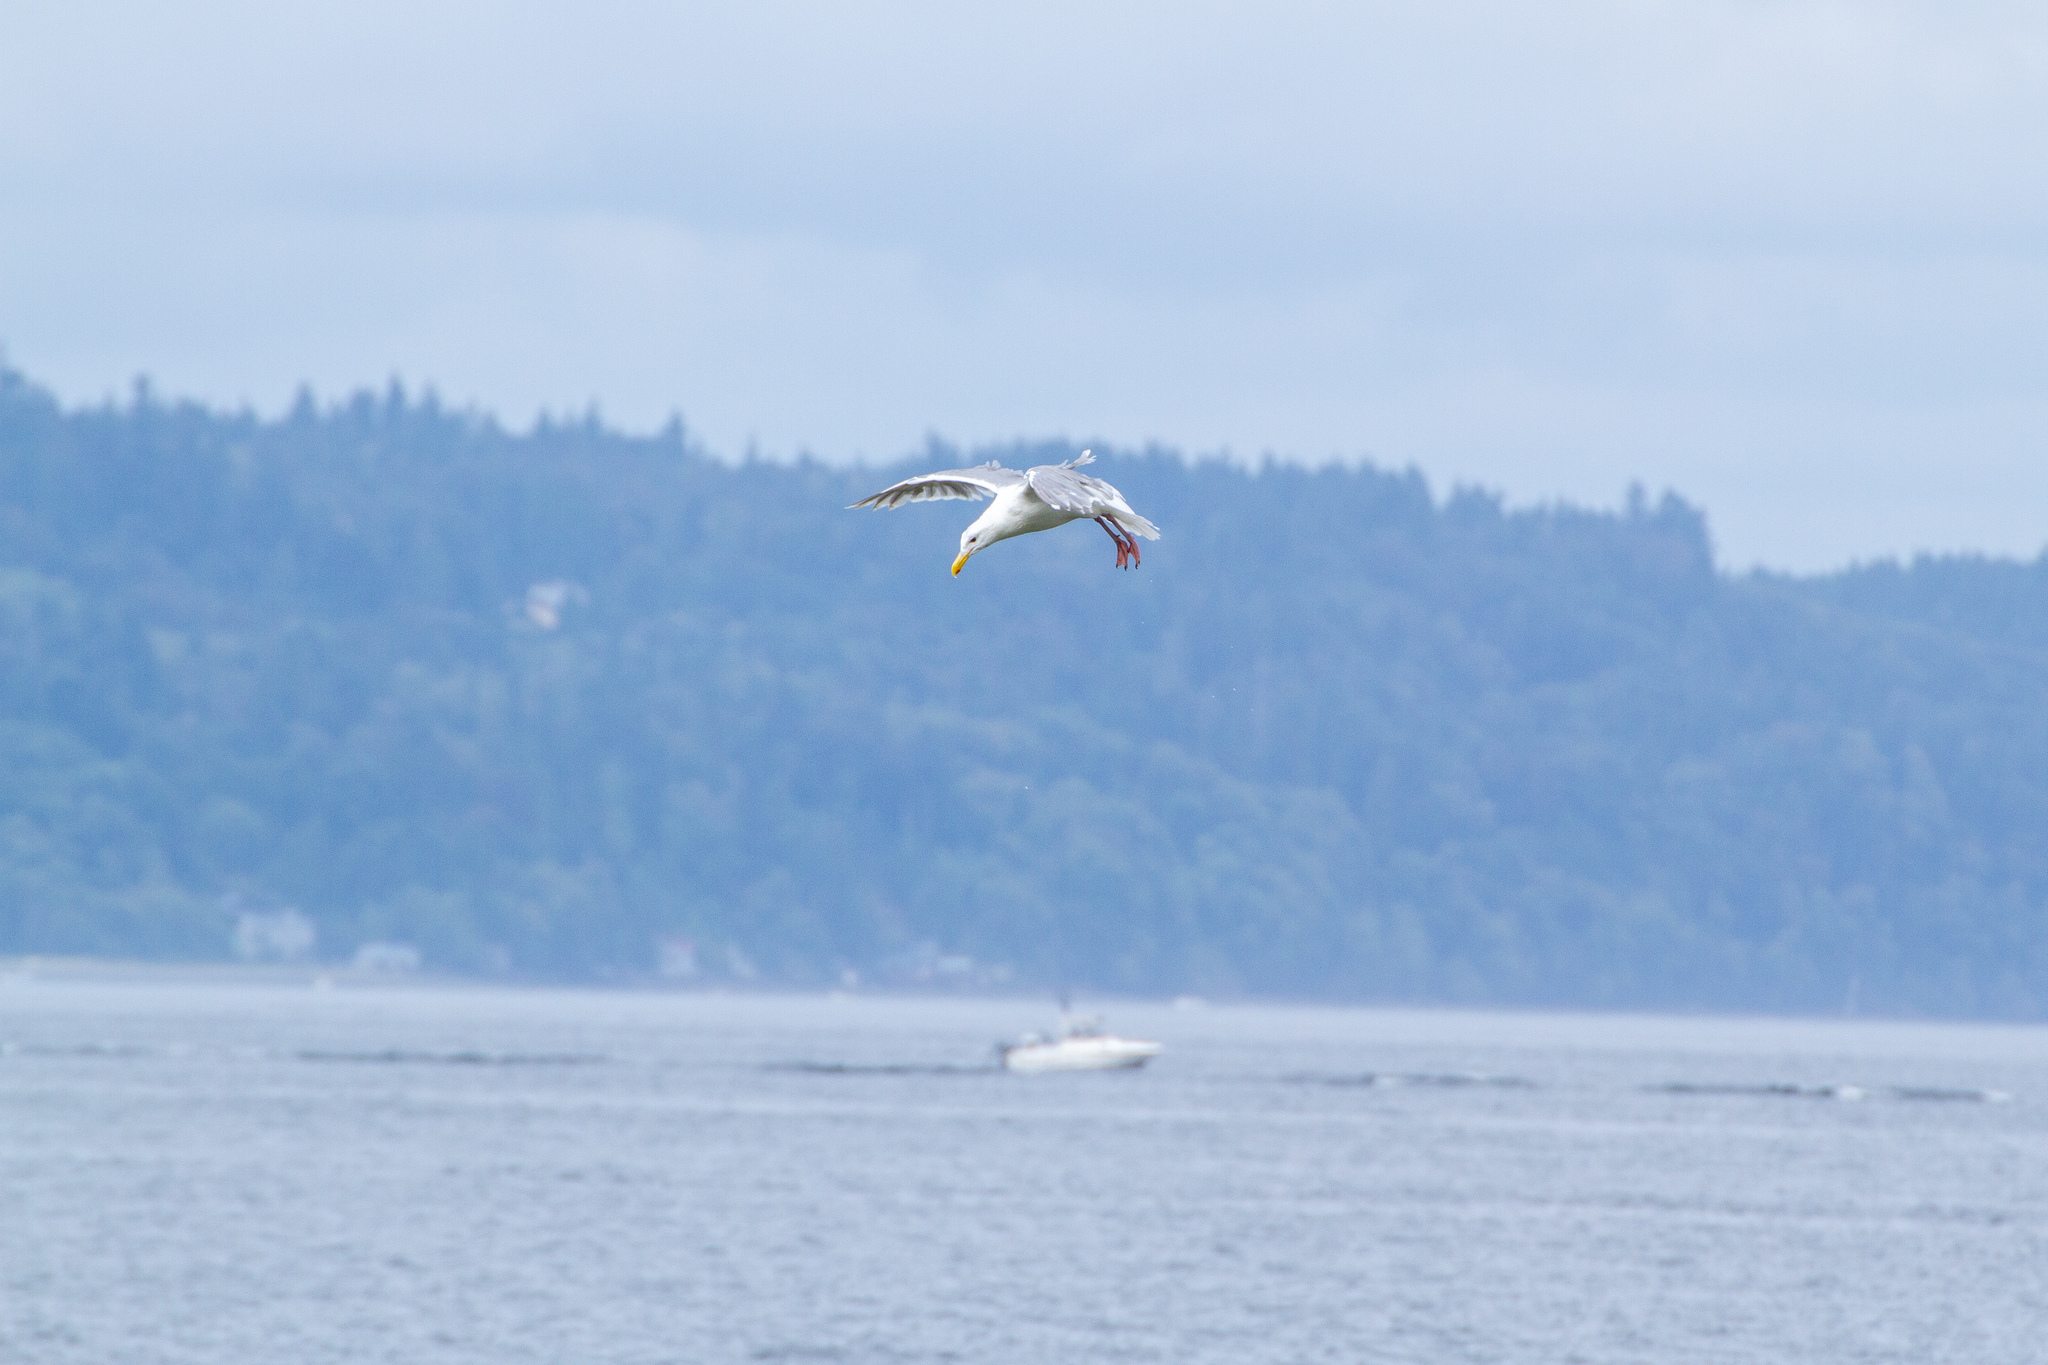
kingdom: Animalia
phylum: Chordata
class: Aves
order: Charadriiformes
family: Laridae
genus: Larus
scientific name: Larus glaucescens
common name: Glaucous-winged gull
